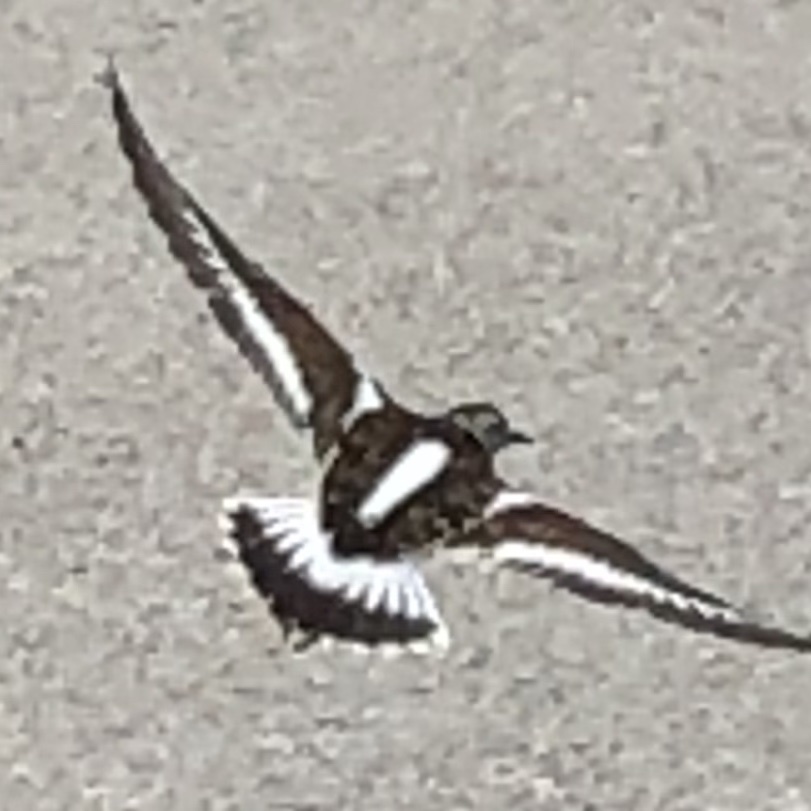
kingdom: Animalia
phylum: Chordata
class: Aves
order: Charadriiformes
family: Scolopacidae
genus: Arenaria
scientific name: Arenaria interpres
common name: Ruddy turnstone
